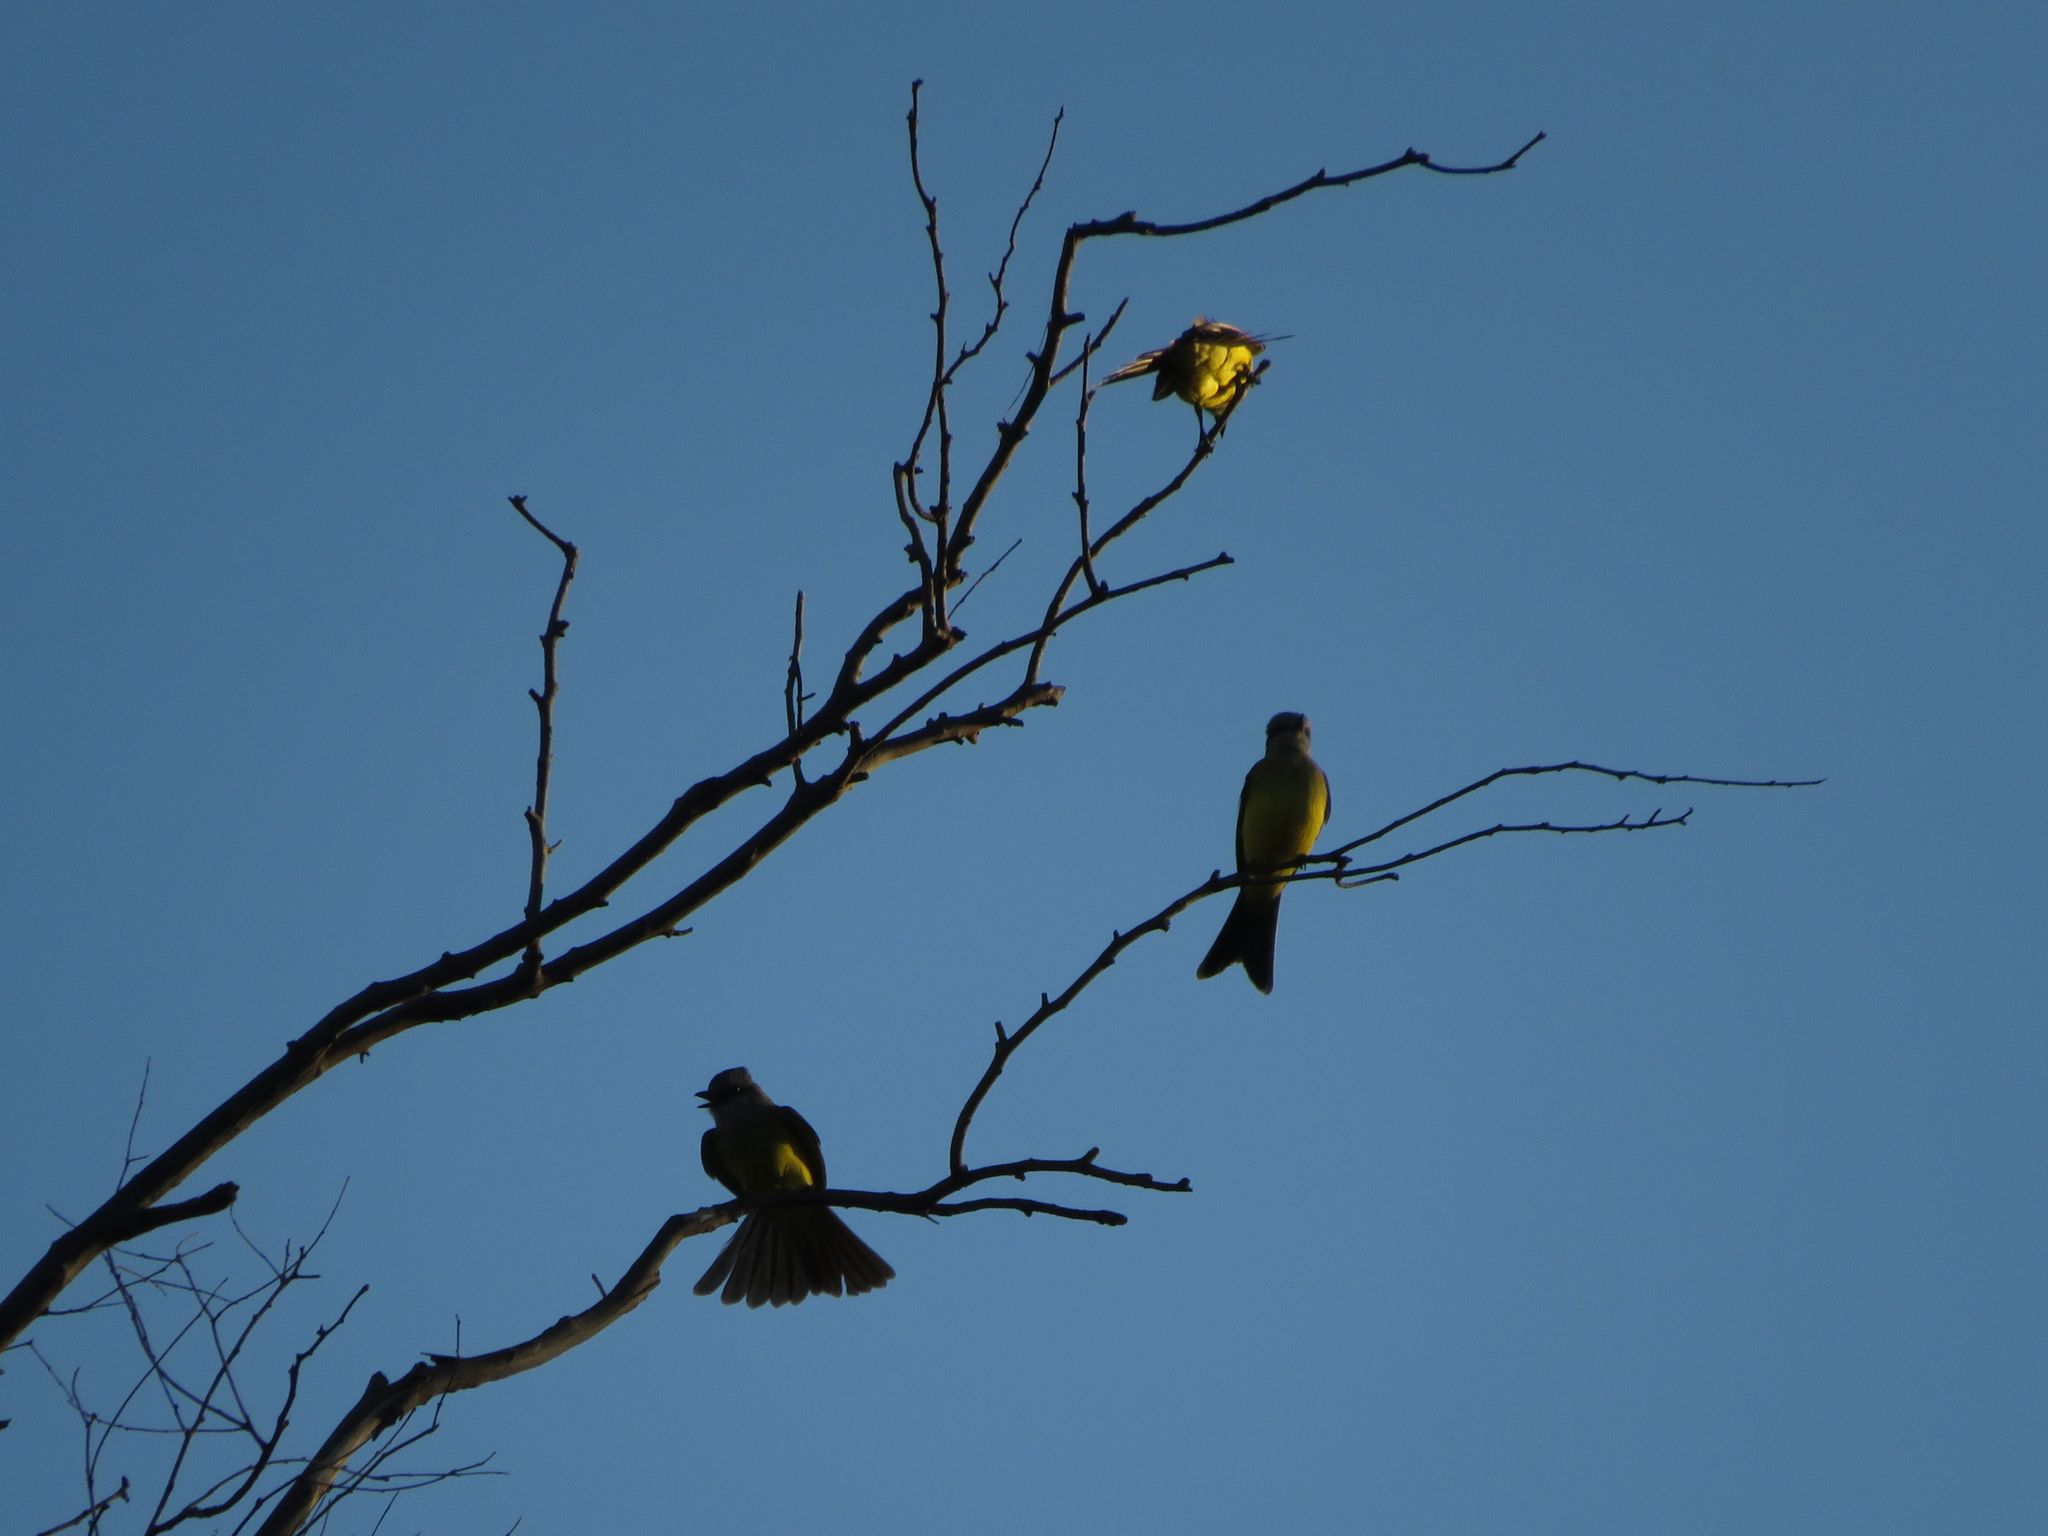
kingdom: Animalia
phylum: Chordata
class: Aves
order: Passeriformes
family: Tyrannidae
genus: Tyrannus
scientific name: Tyrannus melancholicus
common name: Tropical kingbird
